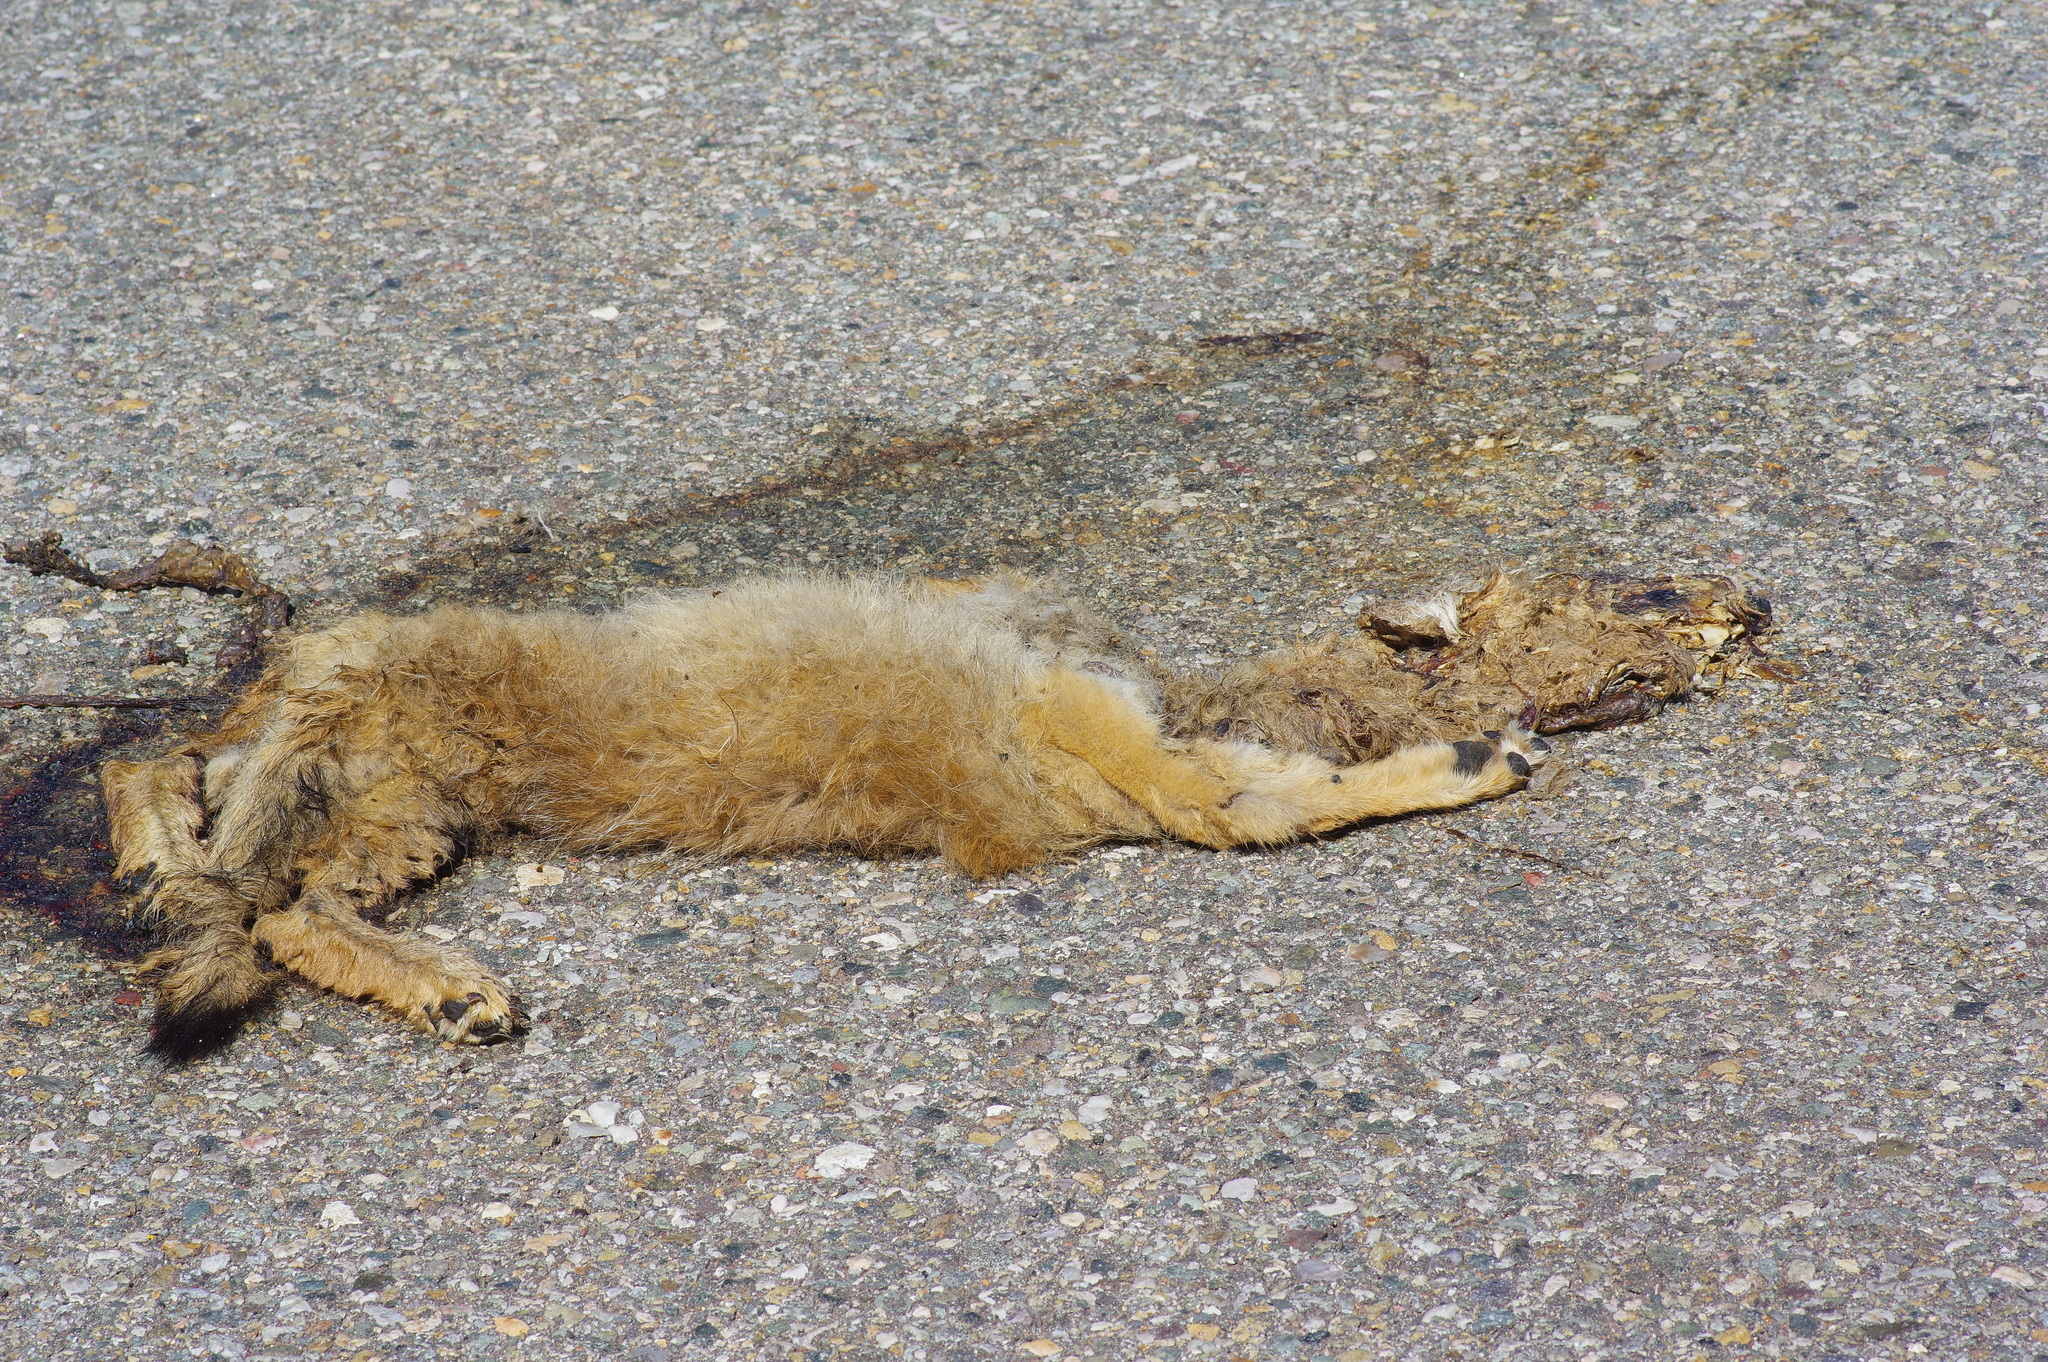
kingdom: Animalia
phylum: Chordata
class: Mammalia
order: Carnivora
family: Canidae
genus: Canis
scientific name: Canis latrans
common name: Coyote
